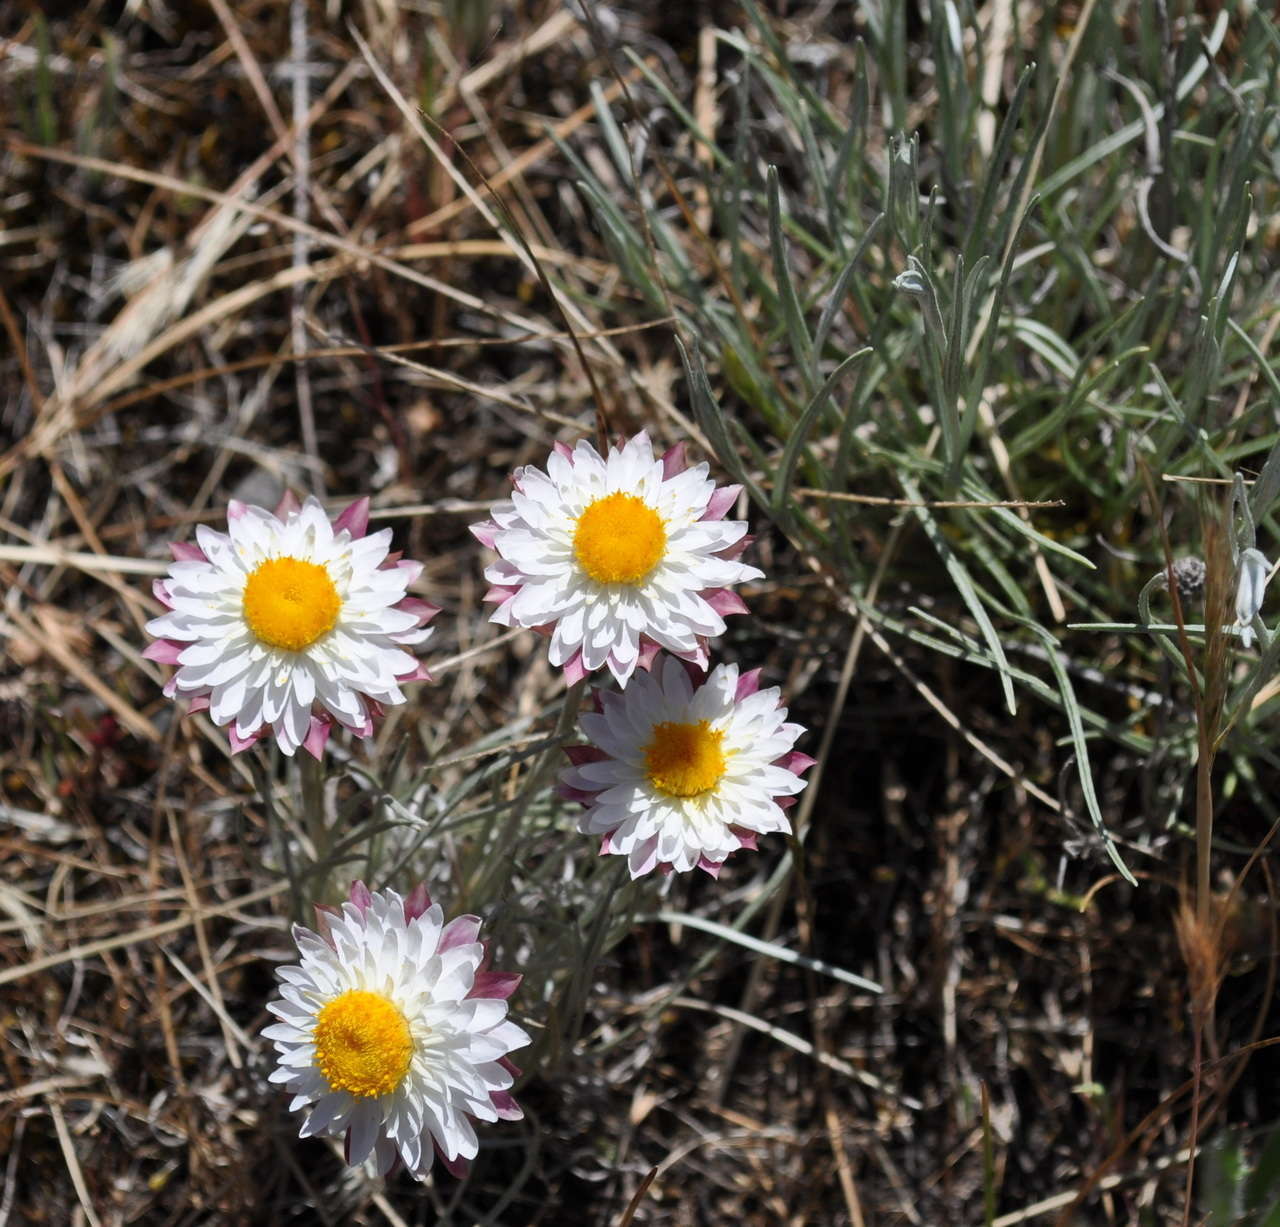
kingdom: Plantae
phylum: Tracheophyta
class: Magnoliopsida
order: Asterales
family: Asteraceae
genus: Leucochrysum
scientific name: Leucochrysum albicans
